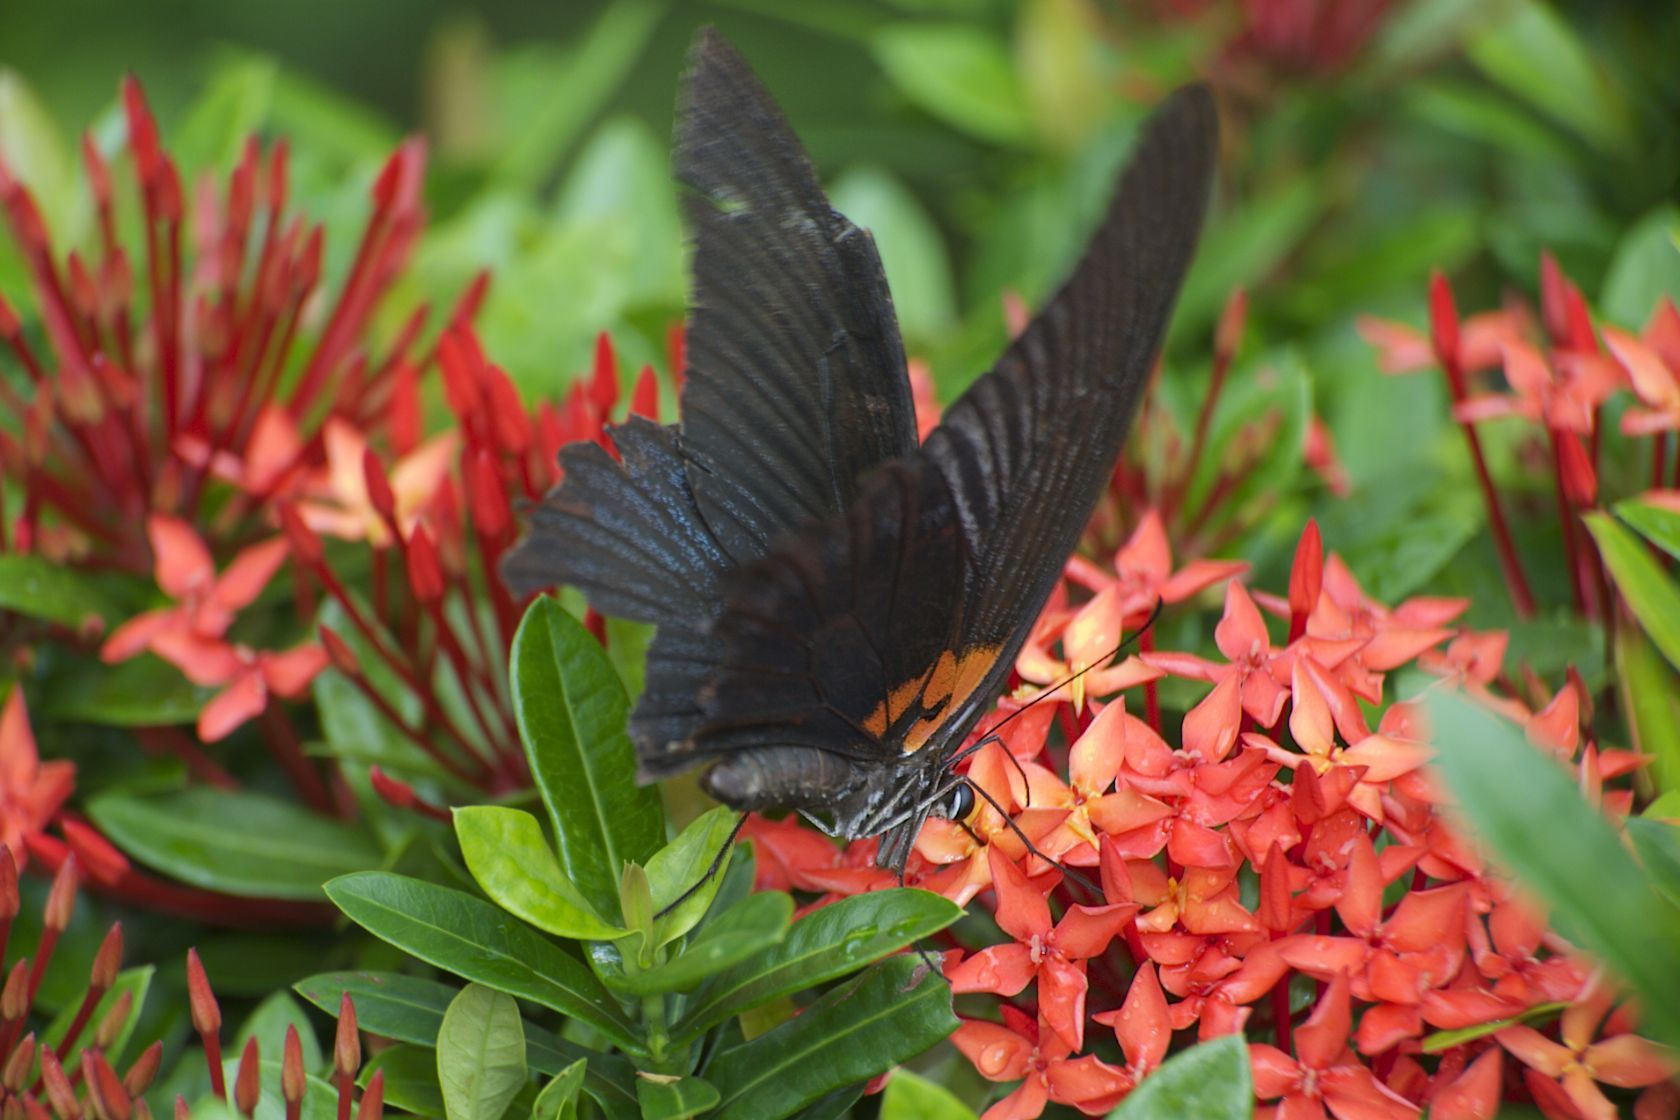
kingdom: Animalia
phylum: Arthropoda
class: Insecta
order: Lepidoptera
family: Papilionidae
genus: Papilio
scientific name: Papilio memnon
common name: Great mormon
